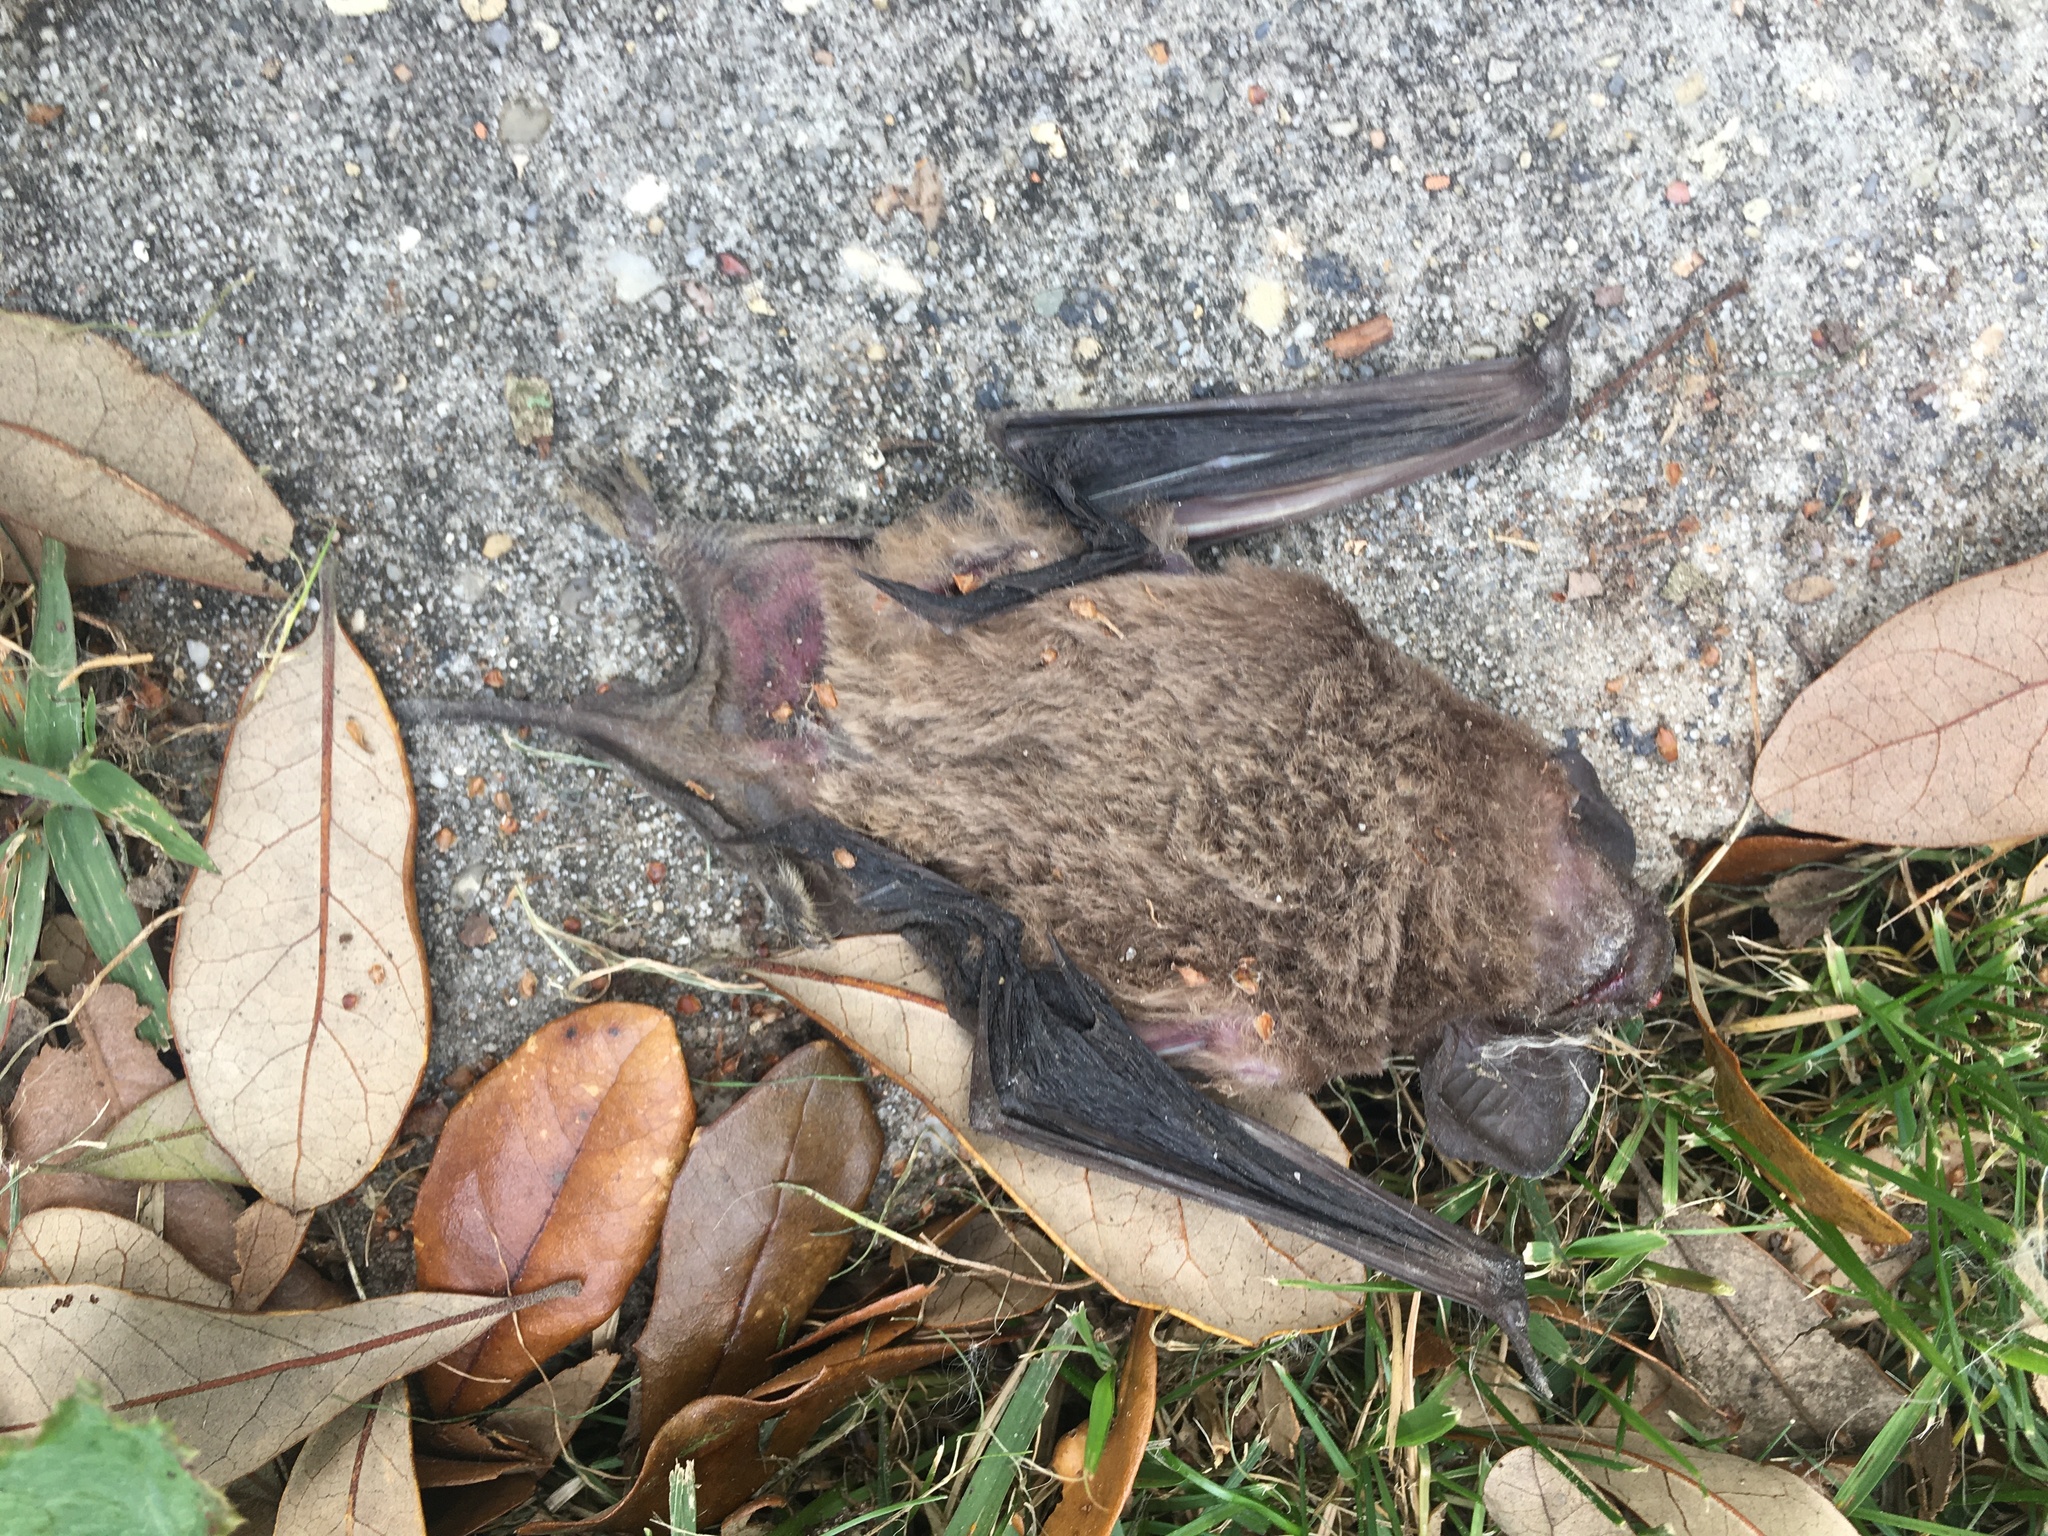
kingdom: Animalia
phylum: Chordata
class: Mammalia
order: Chiroptera
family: Molossidae
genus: Tadarida
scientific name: Tadarida brasiliensis
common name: Mexican free-tailed bat
